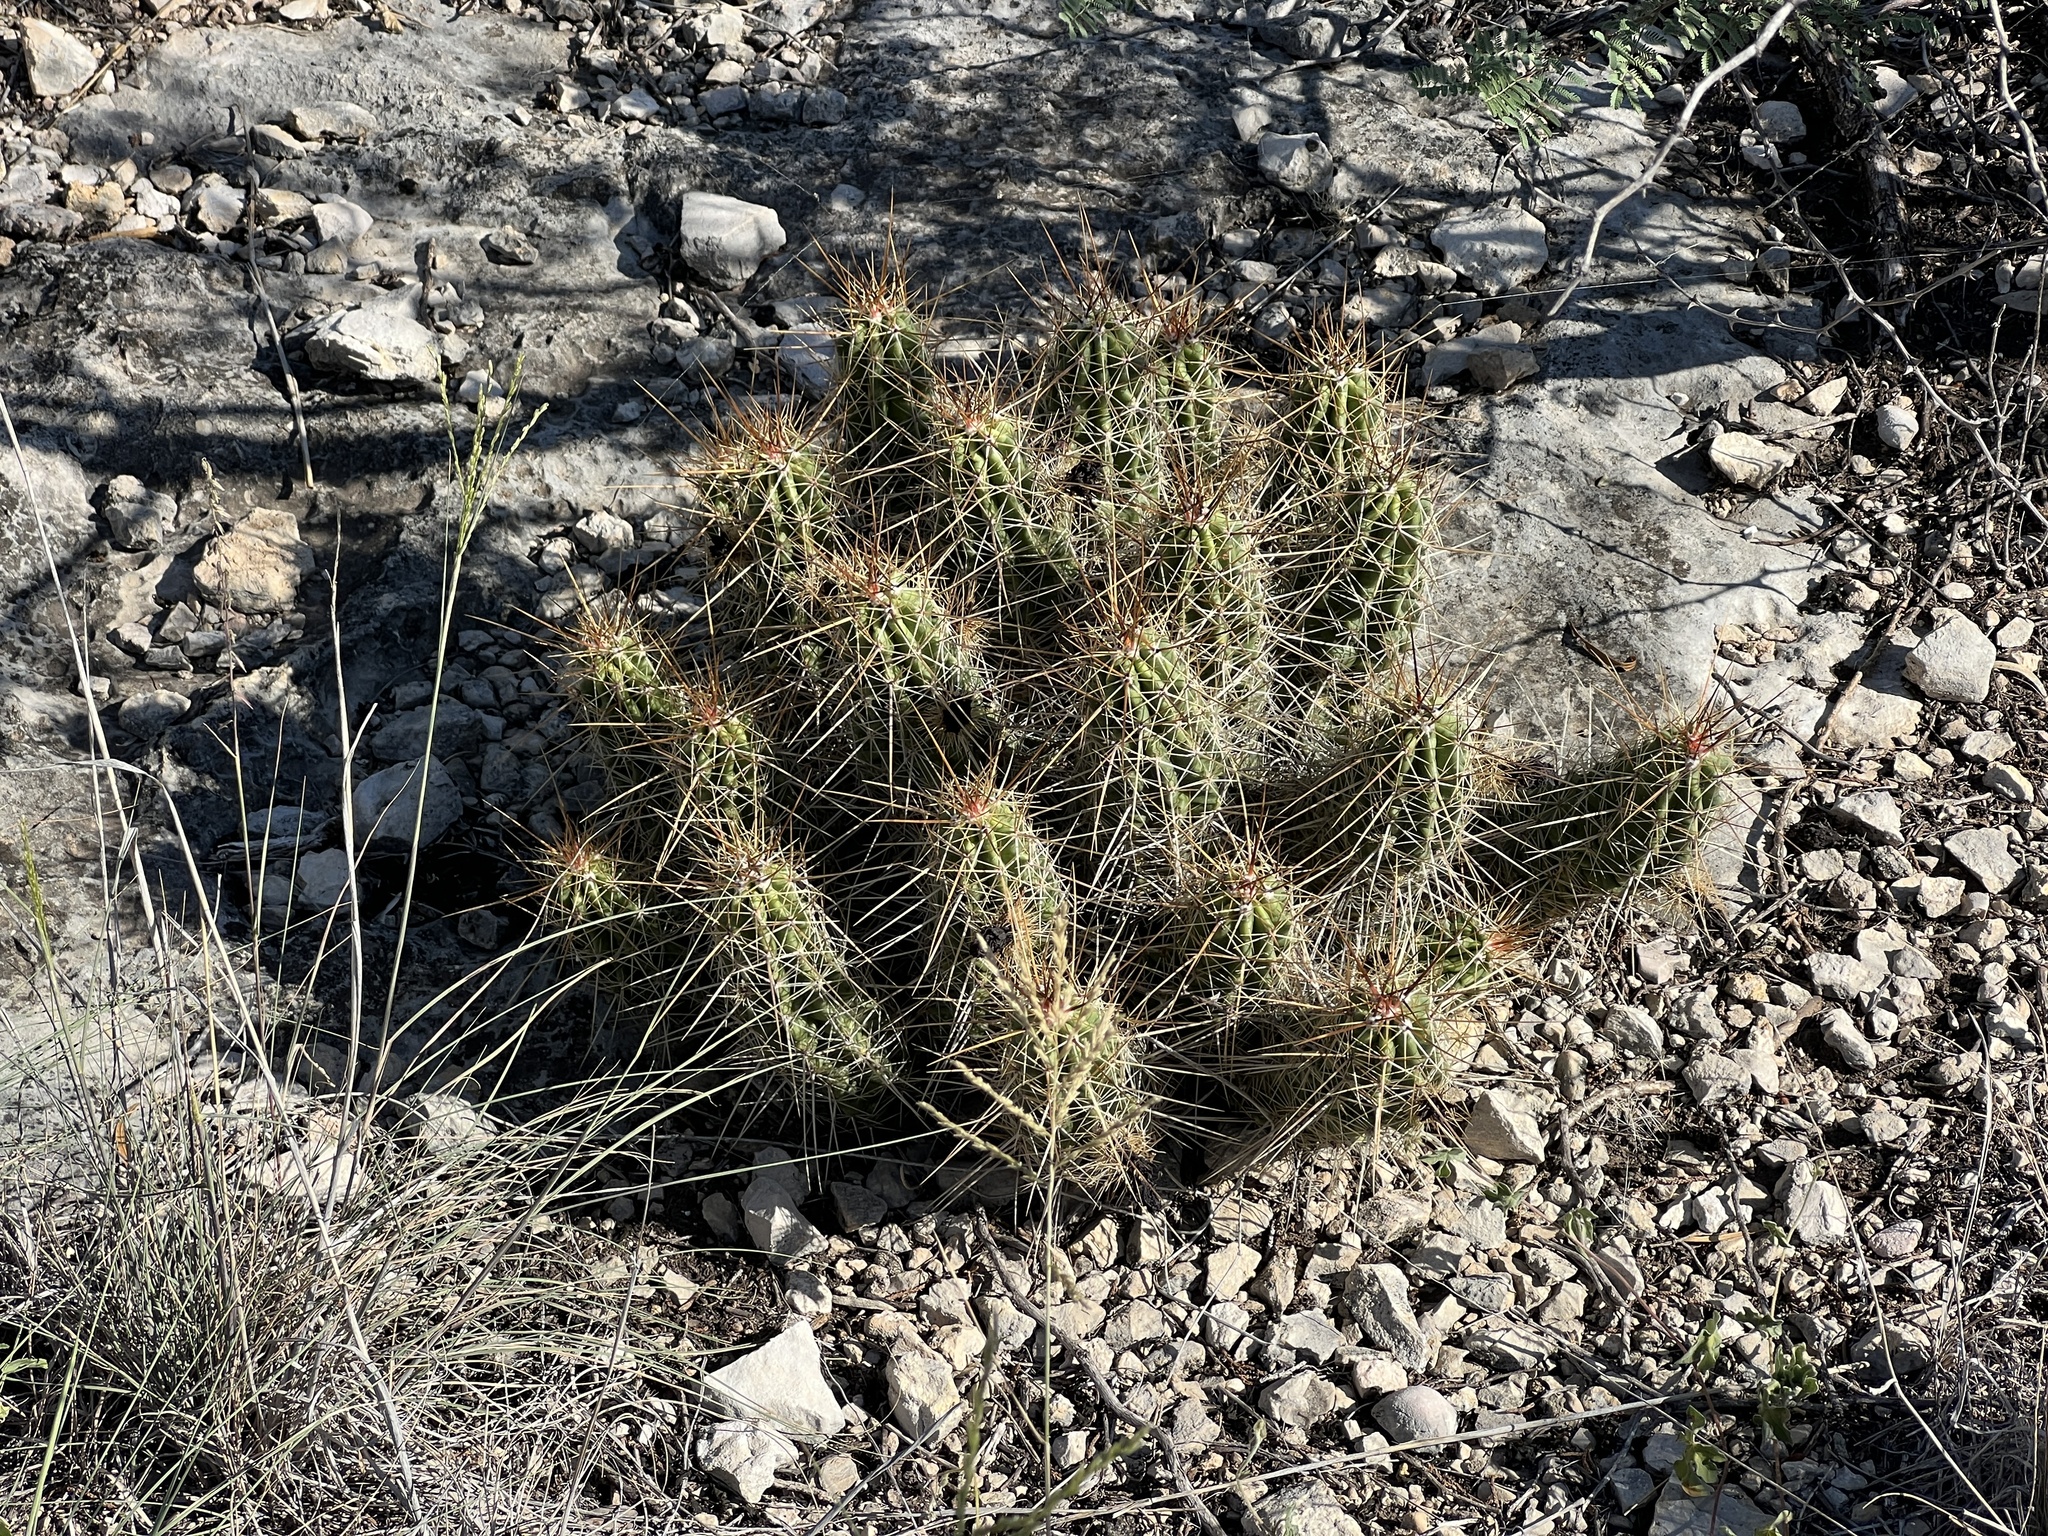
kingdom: Plantae
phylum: Tracheophyta
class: Magnoliopsida
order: Caryophyllales
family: Cactaceae
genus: Echinocereus
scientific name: Echinocereus enneacanthus
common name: Pitaya
